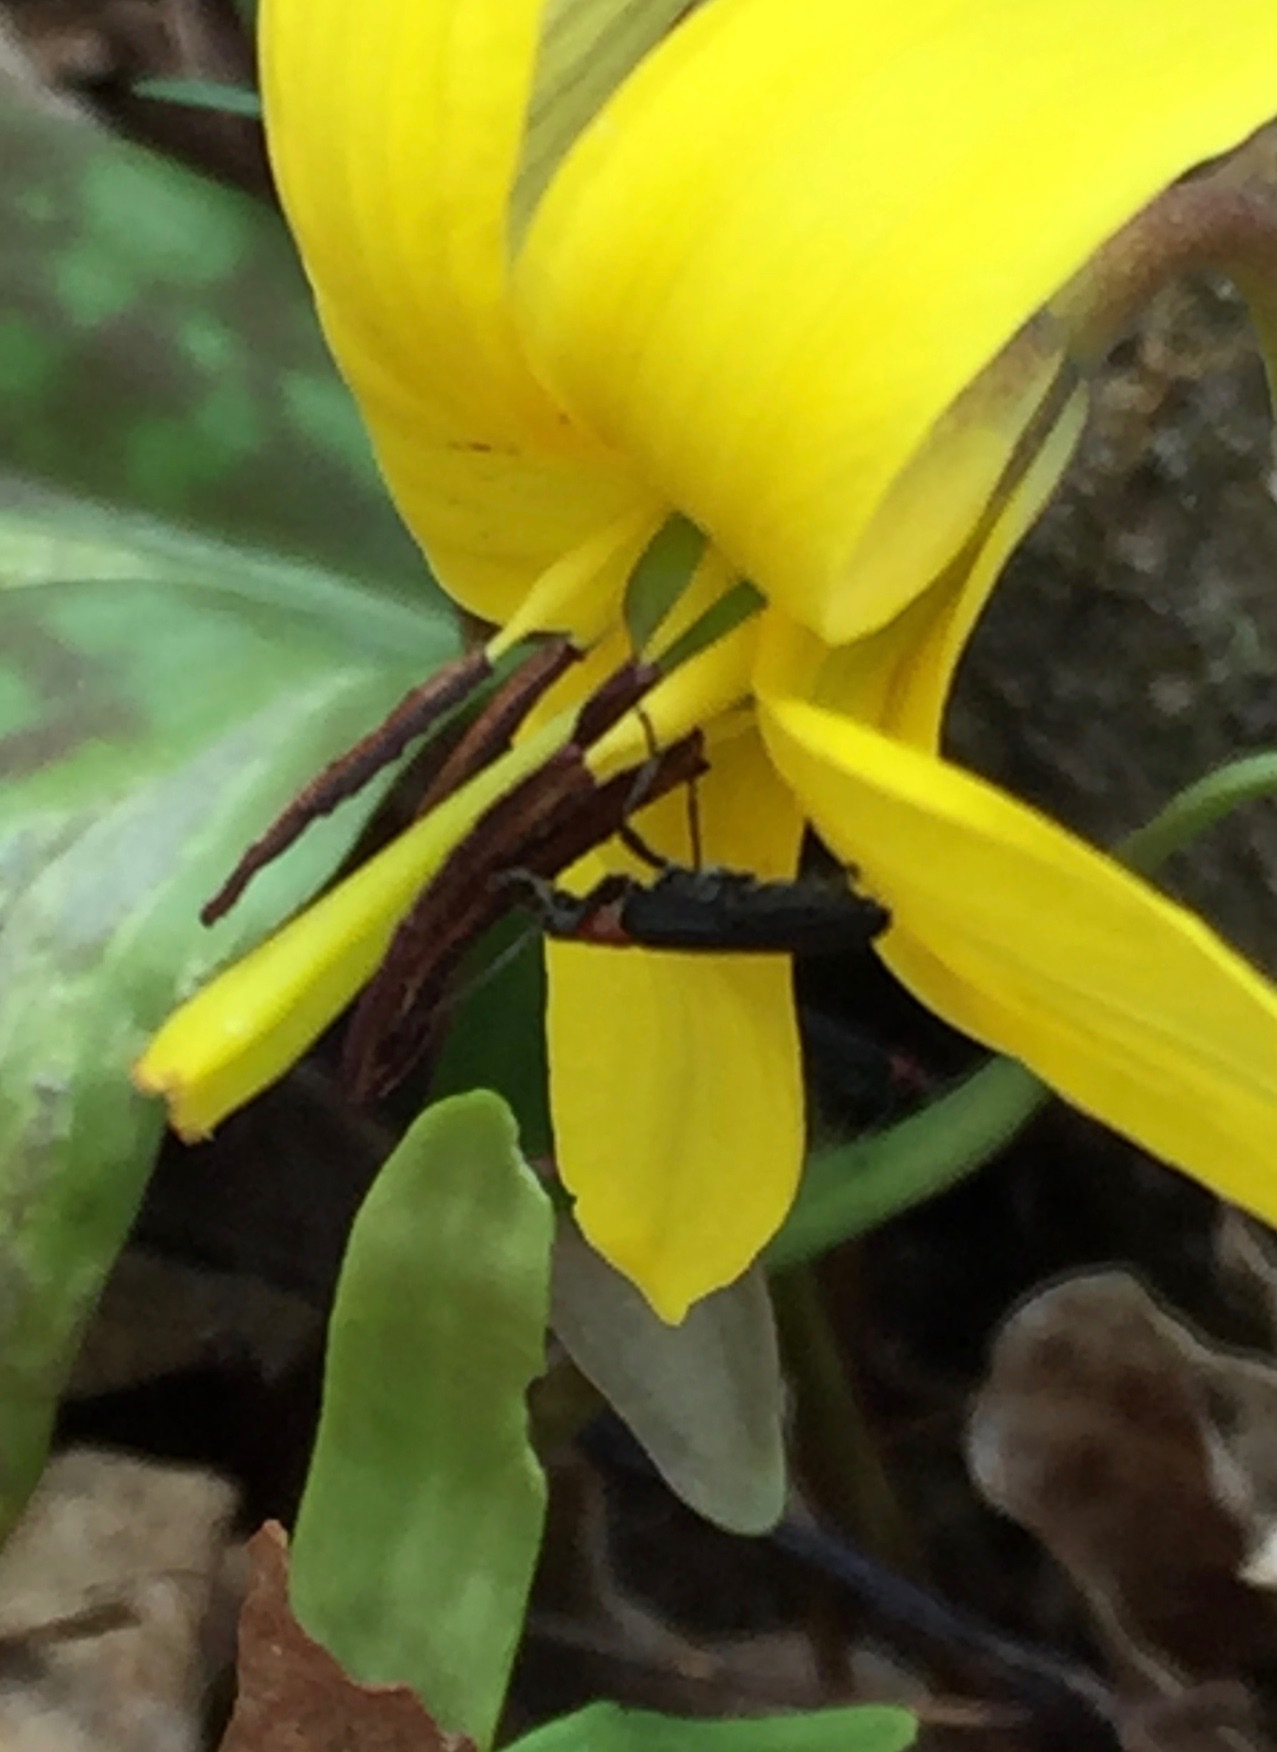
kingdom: Animalia
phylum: Arthropoda
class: Insecta
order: Coleoptera
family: Oedemeridae
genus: Ischnomera
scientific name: Ischnomera
